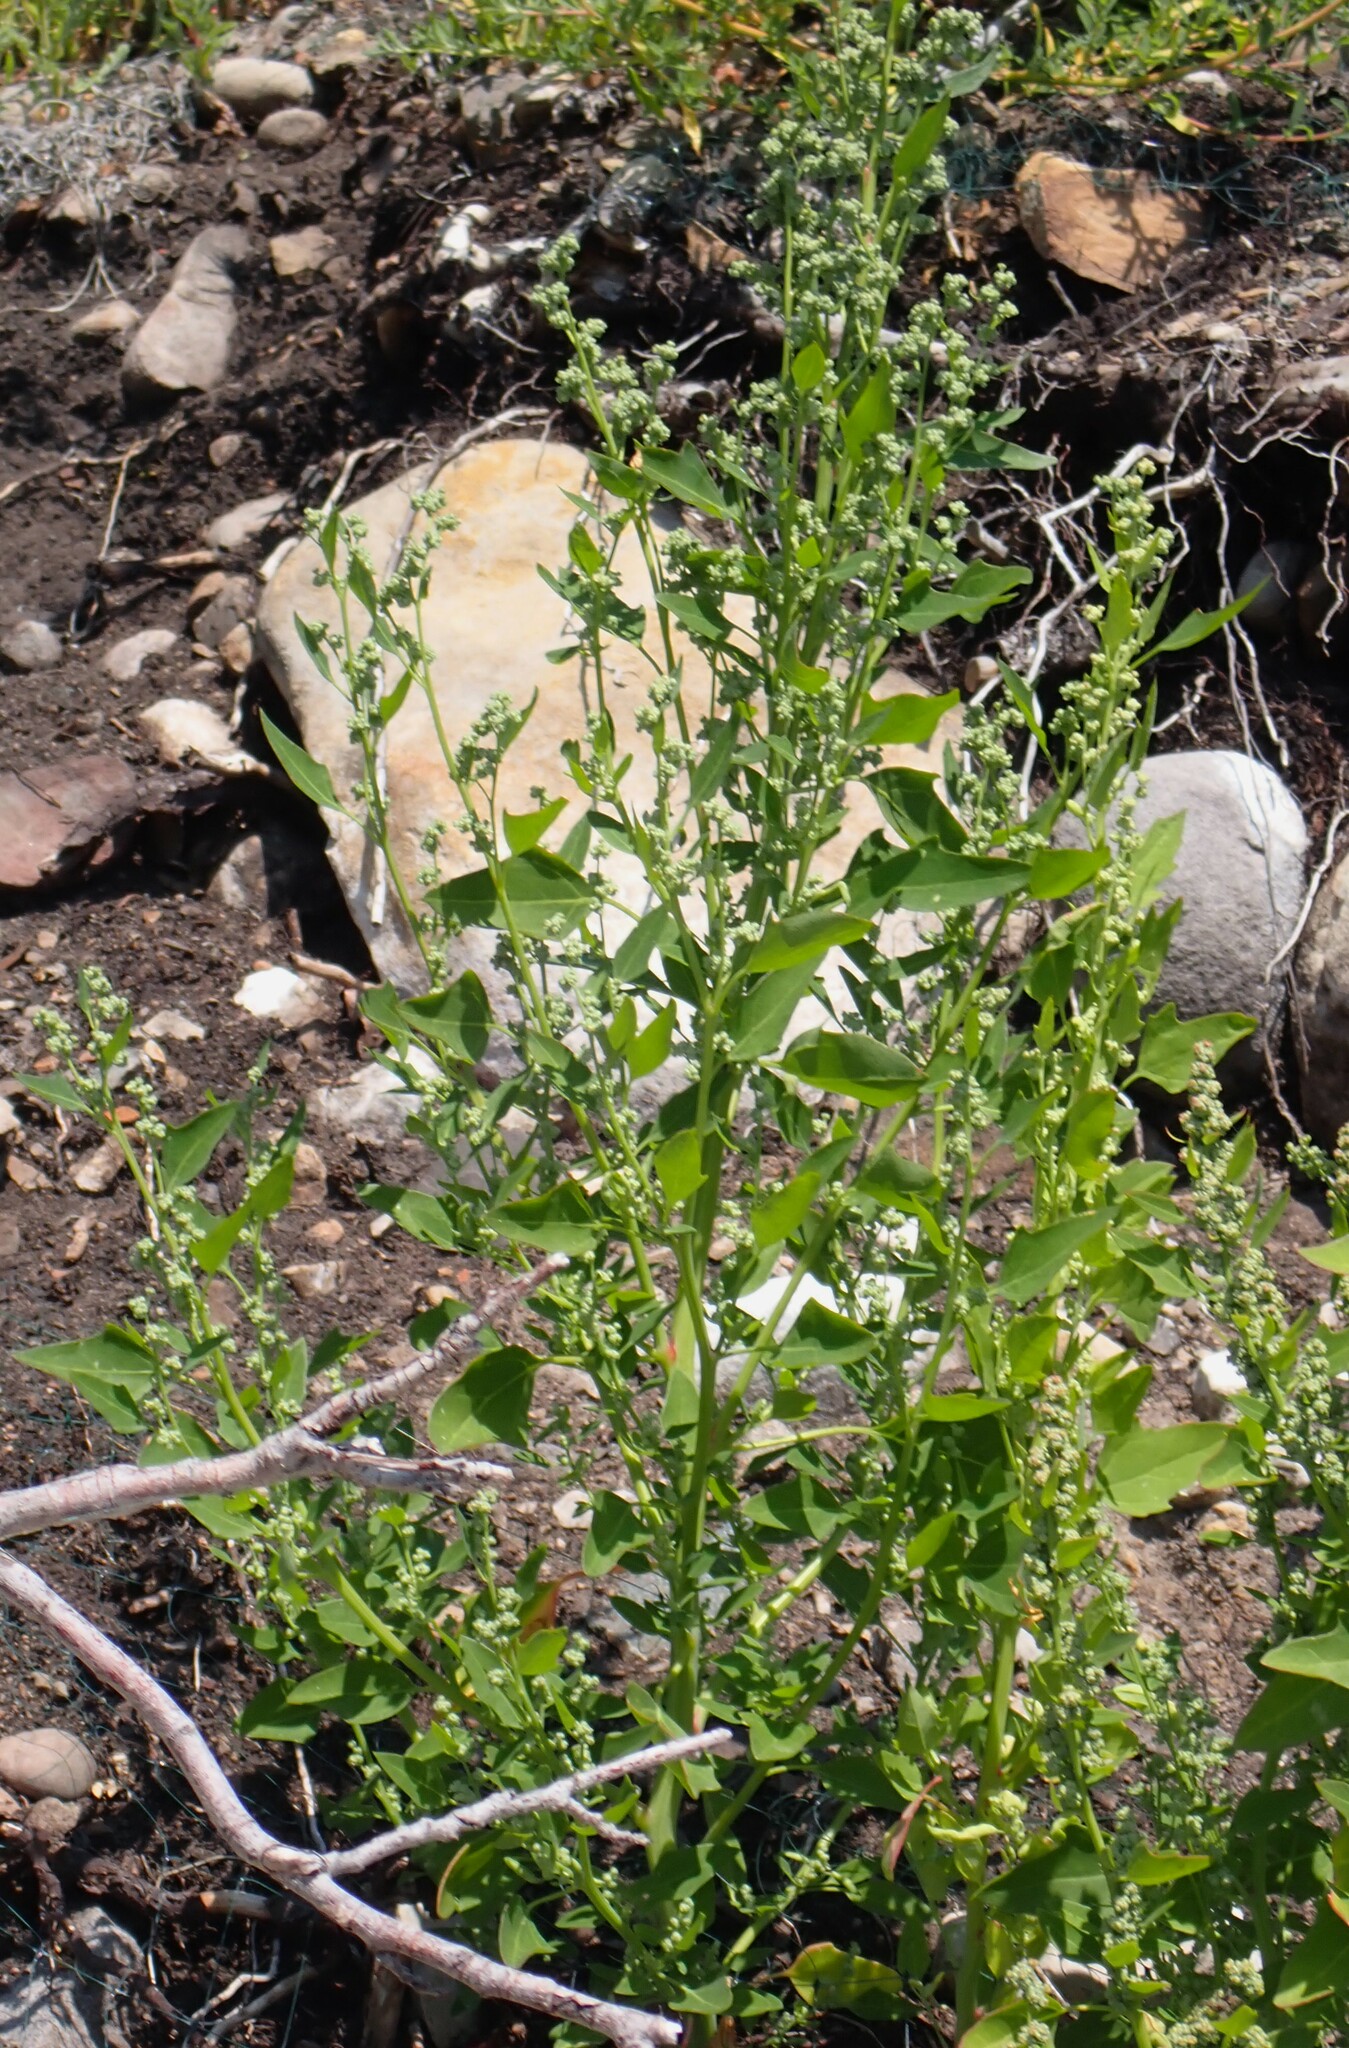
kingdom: Plantae
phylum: Tracheophyta
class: Magnoliopsida
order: Caryophyllales
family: Amaranthaceae
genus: Chenopodium
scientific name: Chenopodium album
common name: Fat-hen
